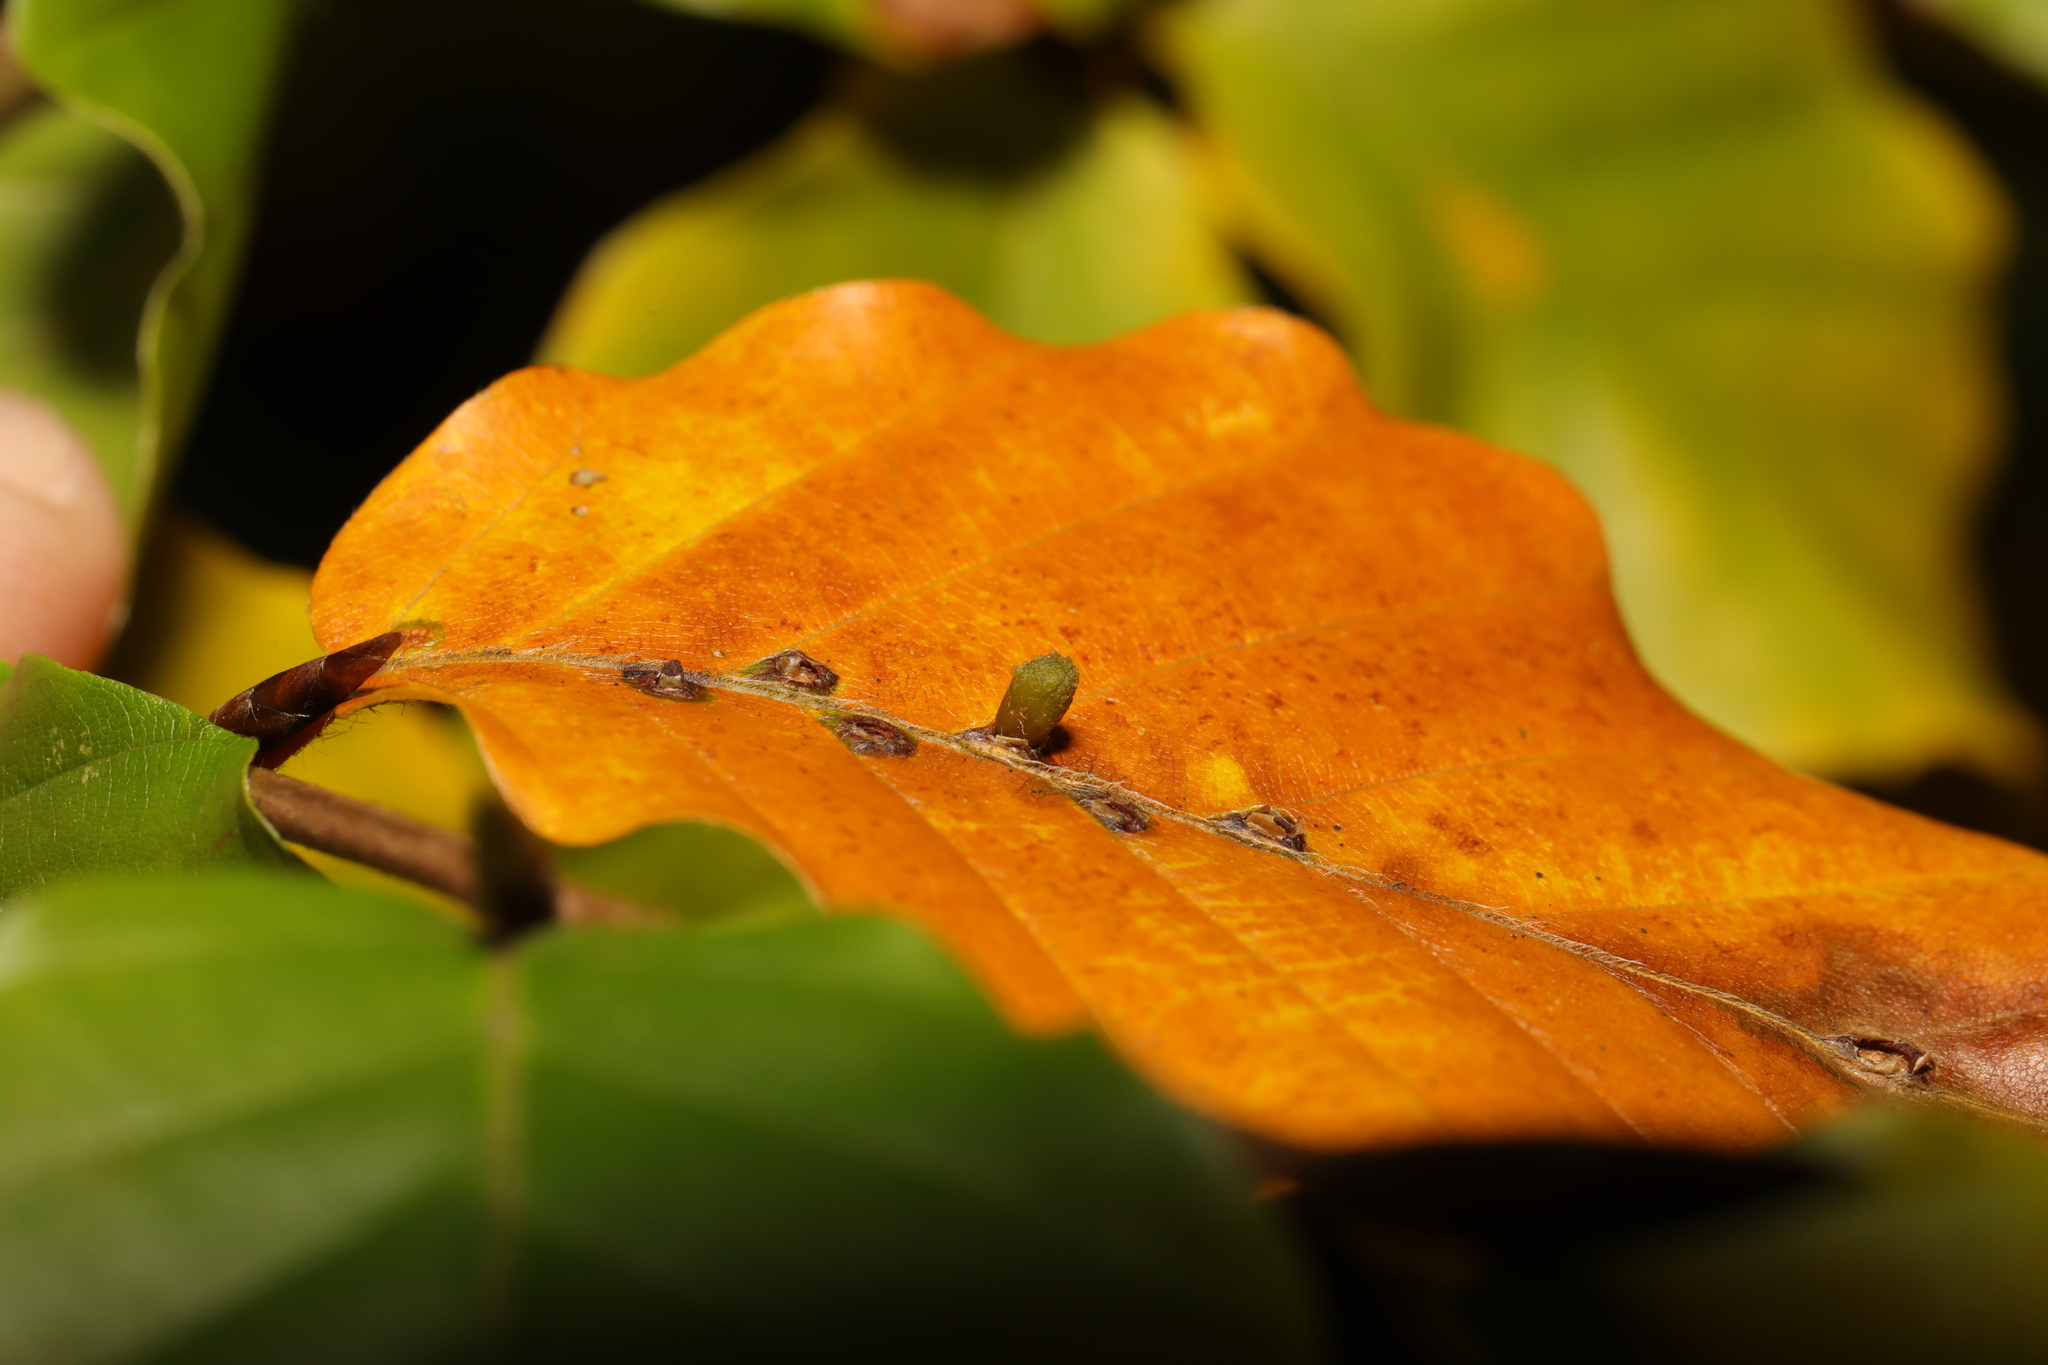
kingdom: Animalia
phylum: Arthropoda
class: Insecta
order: Diptera
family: Cecidomyiidae
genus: Hartigiola
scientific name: Hartigiola annulipes
